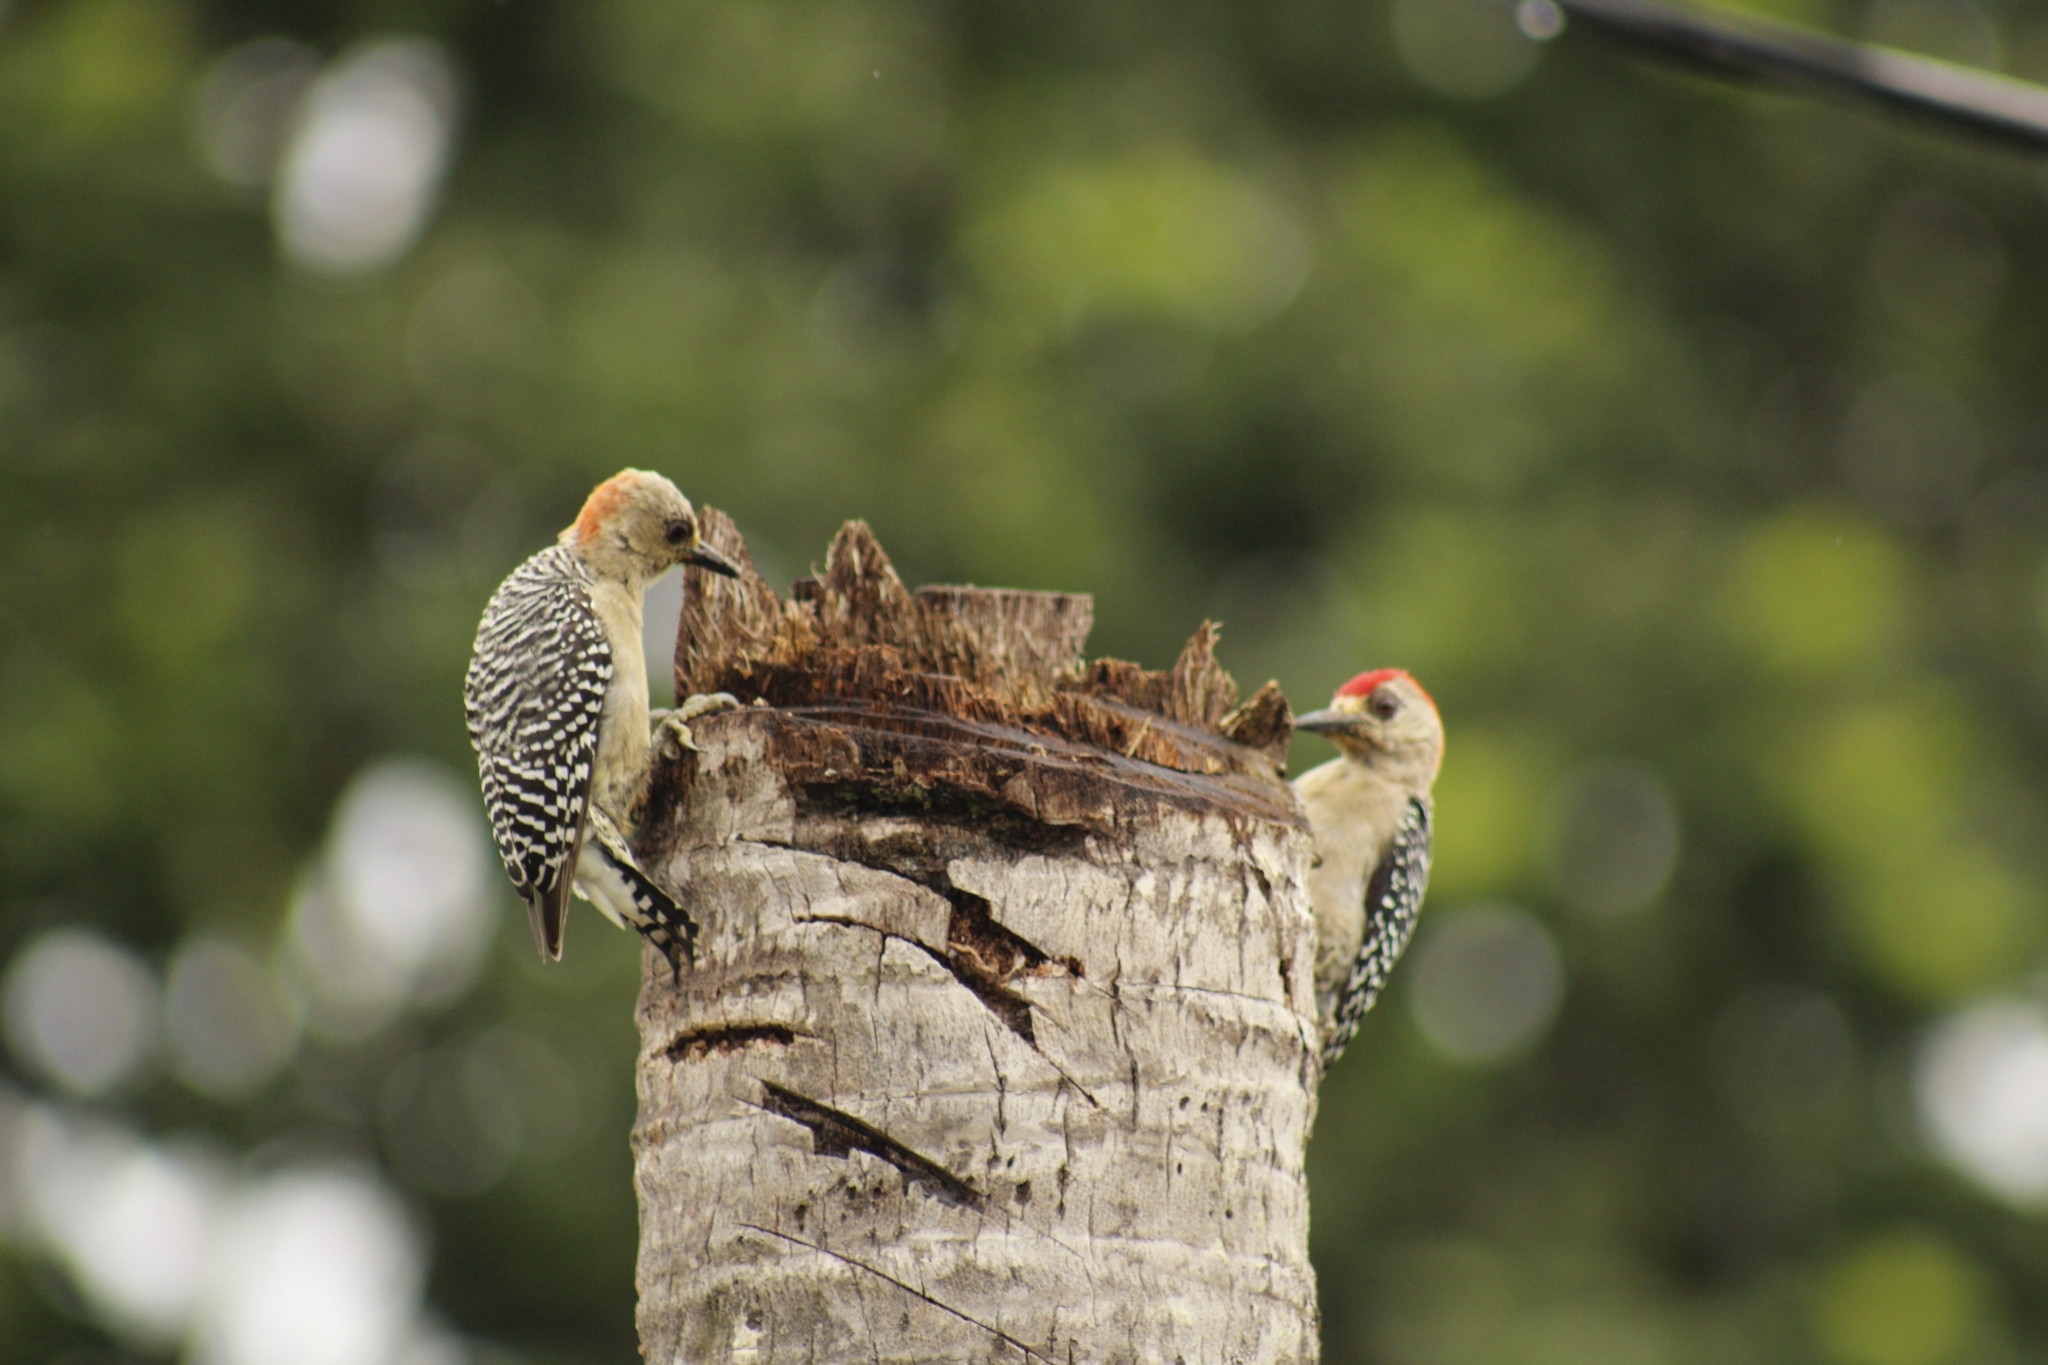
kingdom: Animalia
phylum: Chordata
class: Aves
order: Piciformes
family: Picidae
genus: Melanerpes
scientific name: Melanerpes rubricapillus
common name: Red-crowned woodpecker
